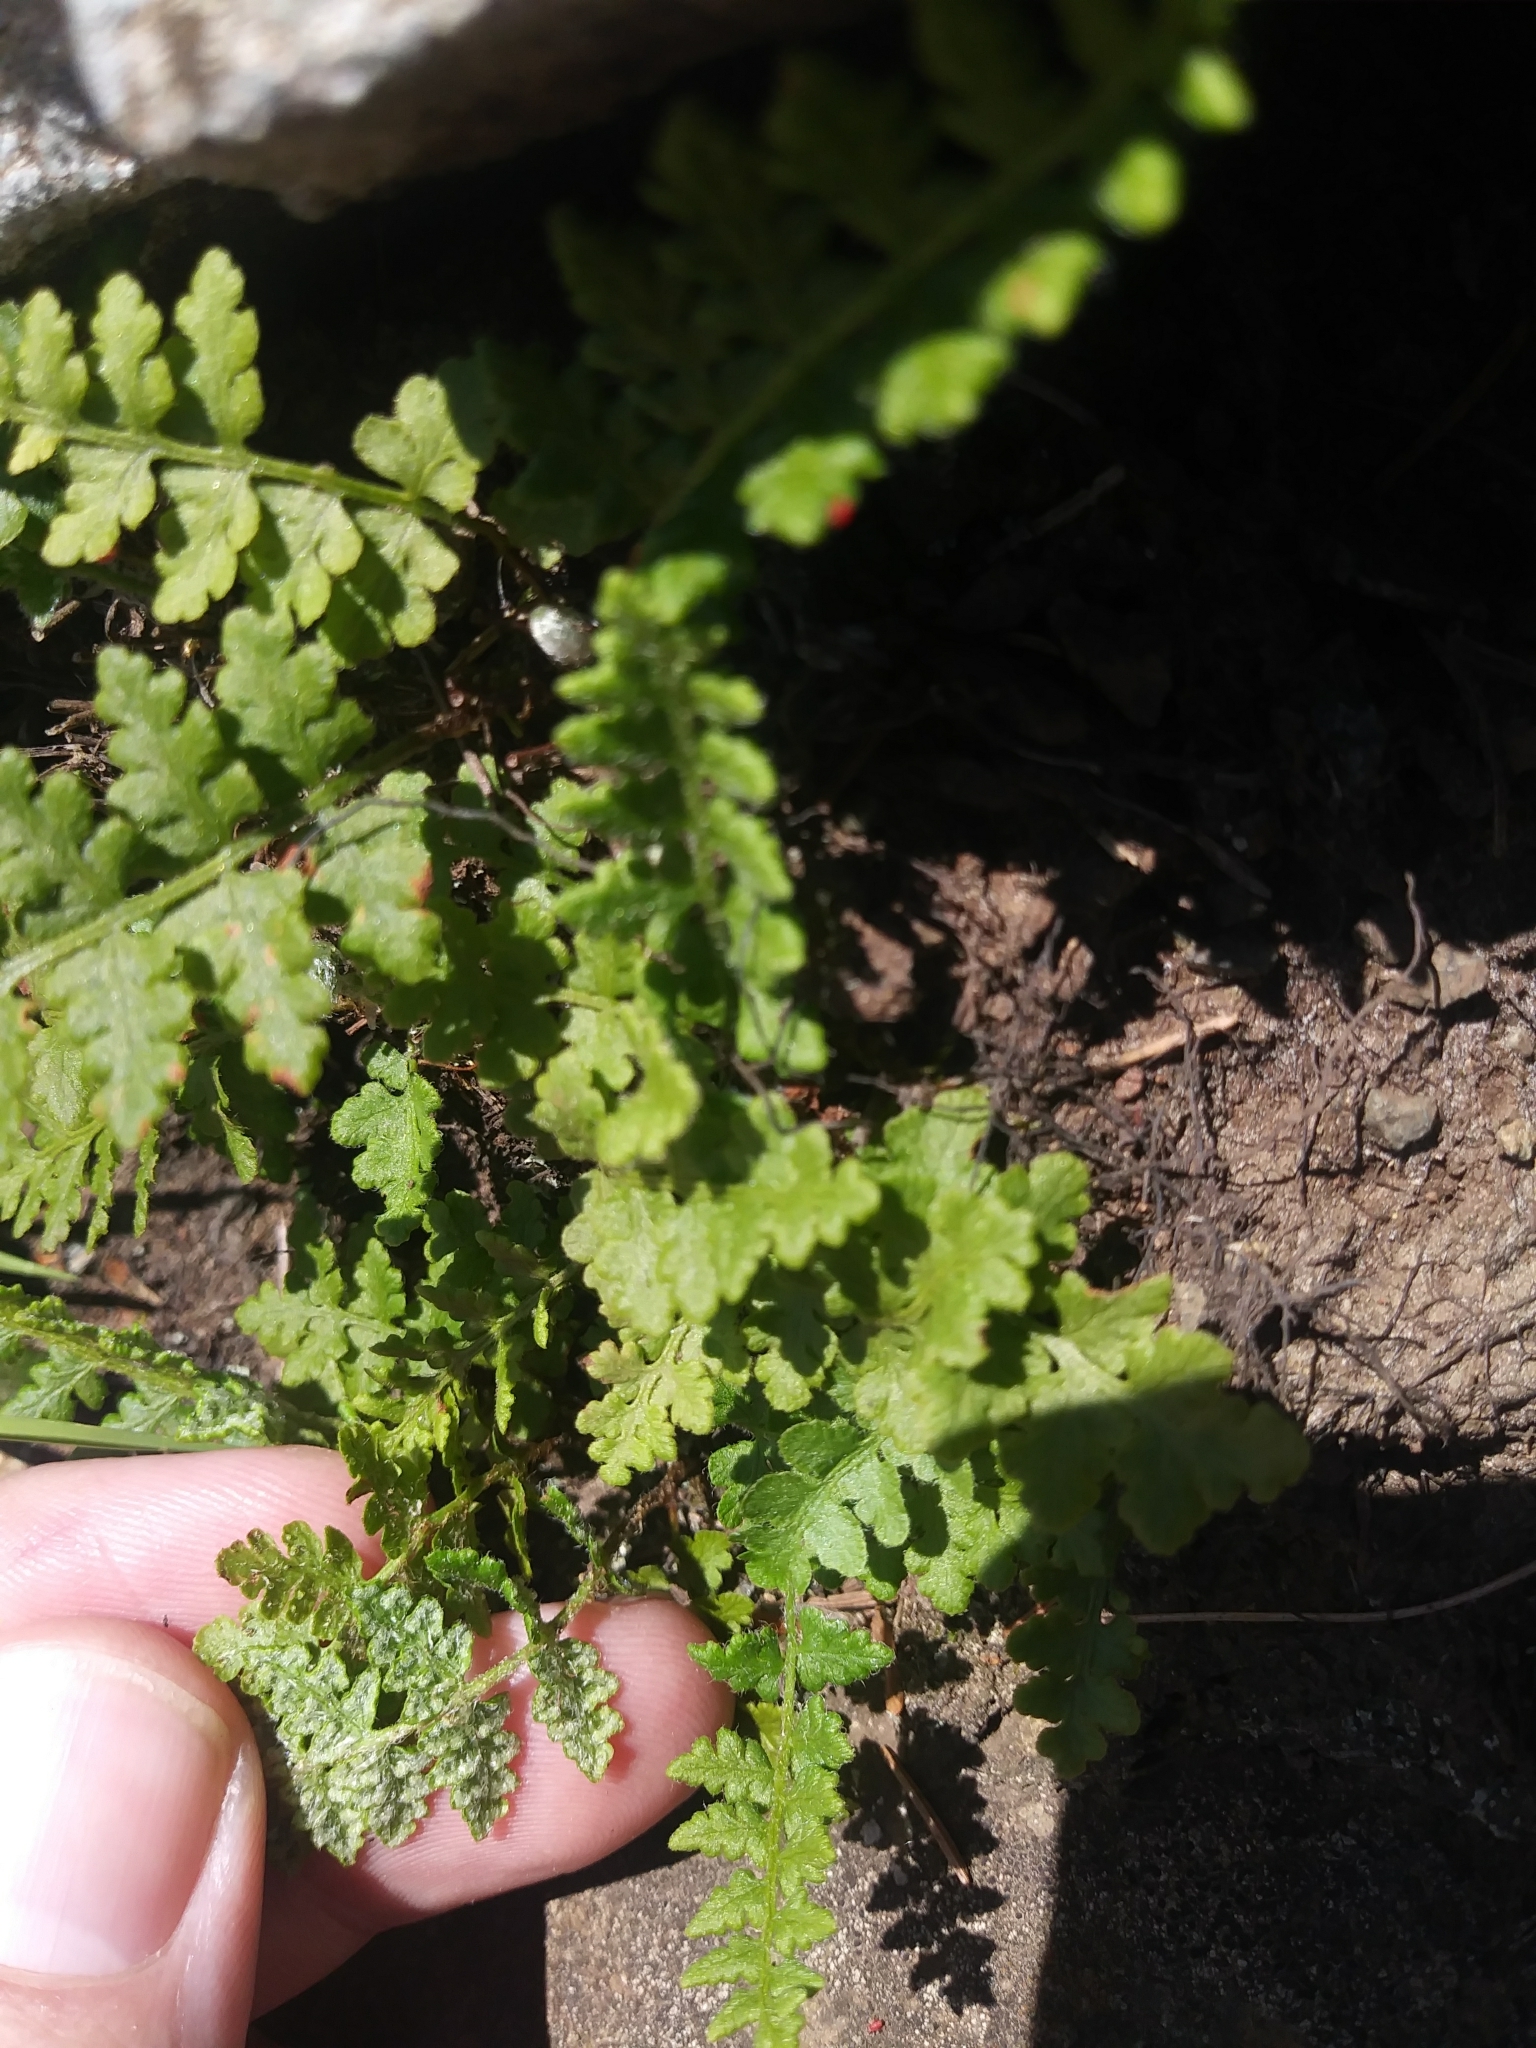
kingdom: Plantae
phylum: Tracheophyta
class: Polypodiopsida
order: Polypodiales
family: Woodsiaceae
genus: Woodsia
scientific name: Woodsia ilvensis
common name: Fragrant woodsia
